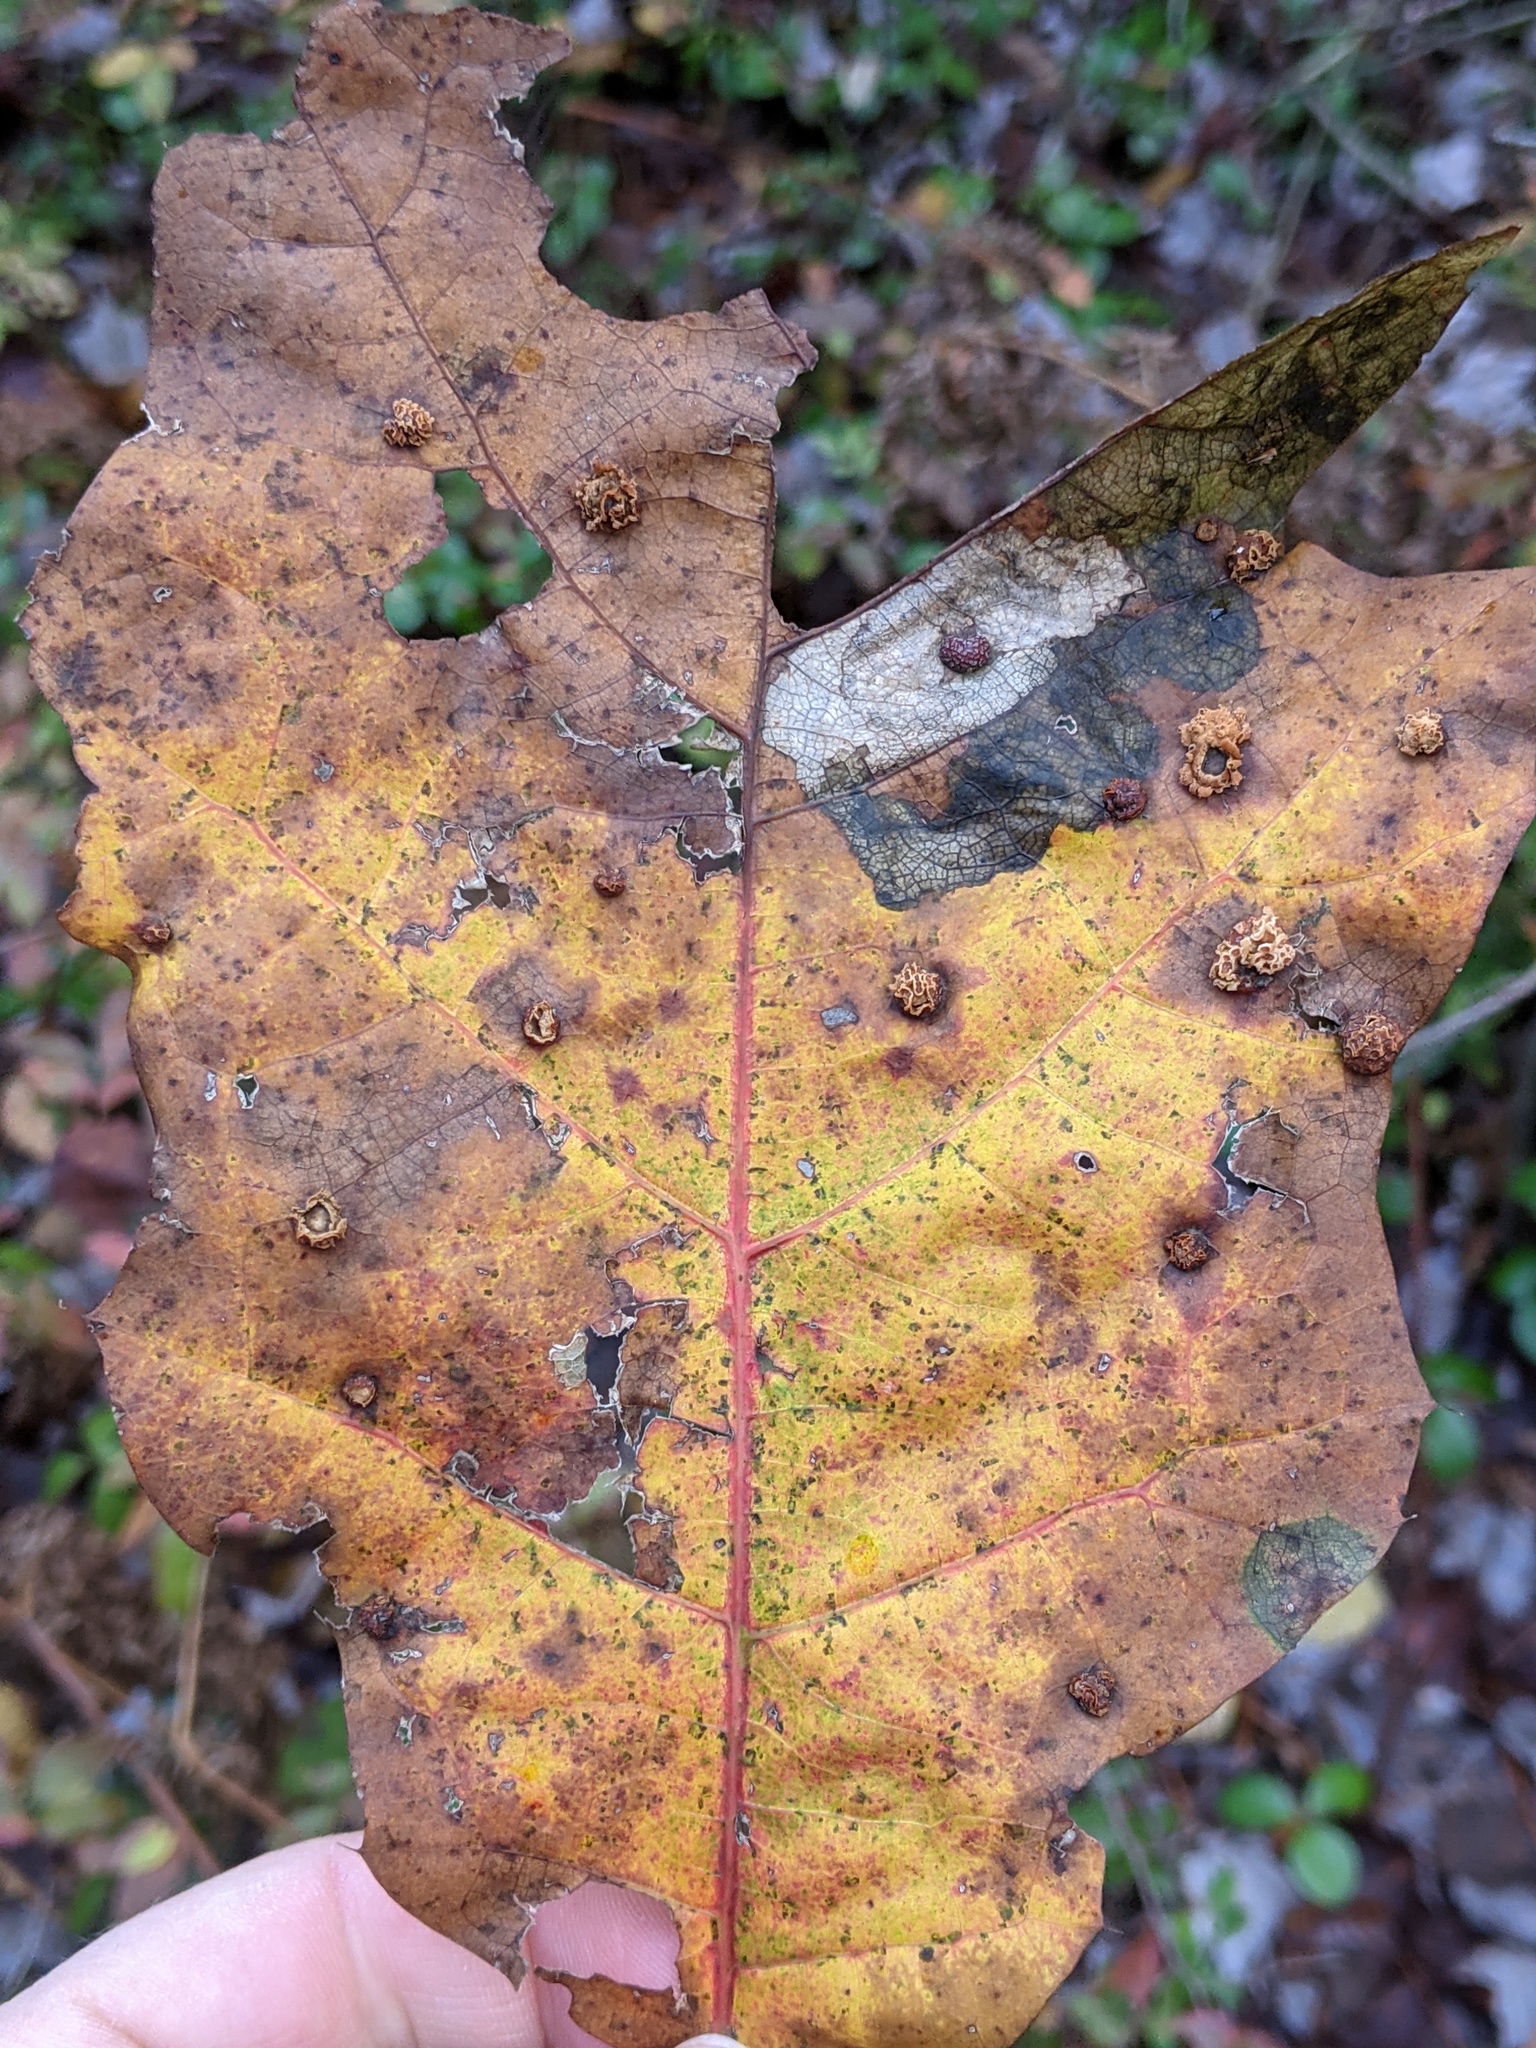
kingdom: Animalia
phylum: Arthropoda
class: Insecta
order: Diptera
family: Cecidomyiidae
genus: Polystepha
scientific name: Polystepha pilulae
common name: Oak leaf gall midge
